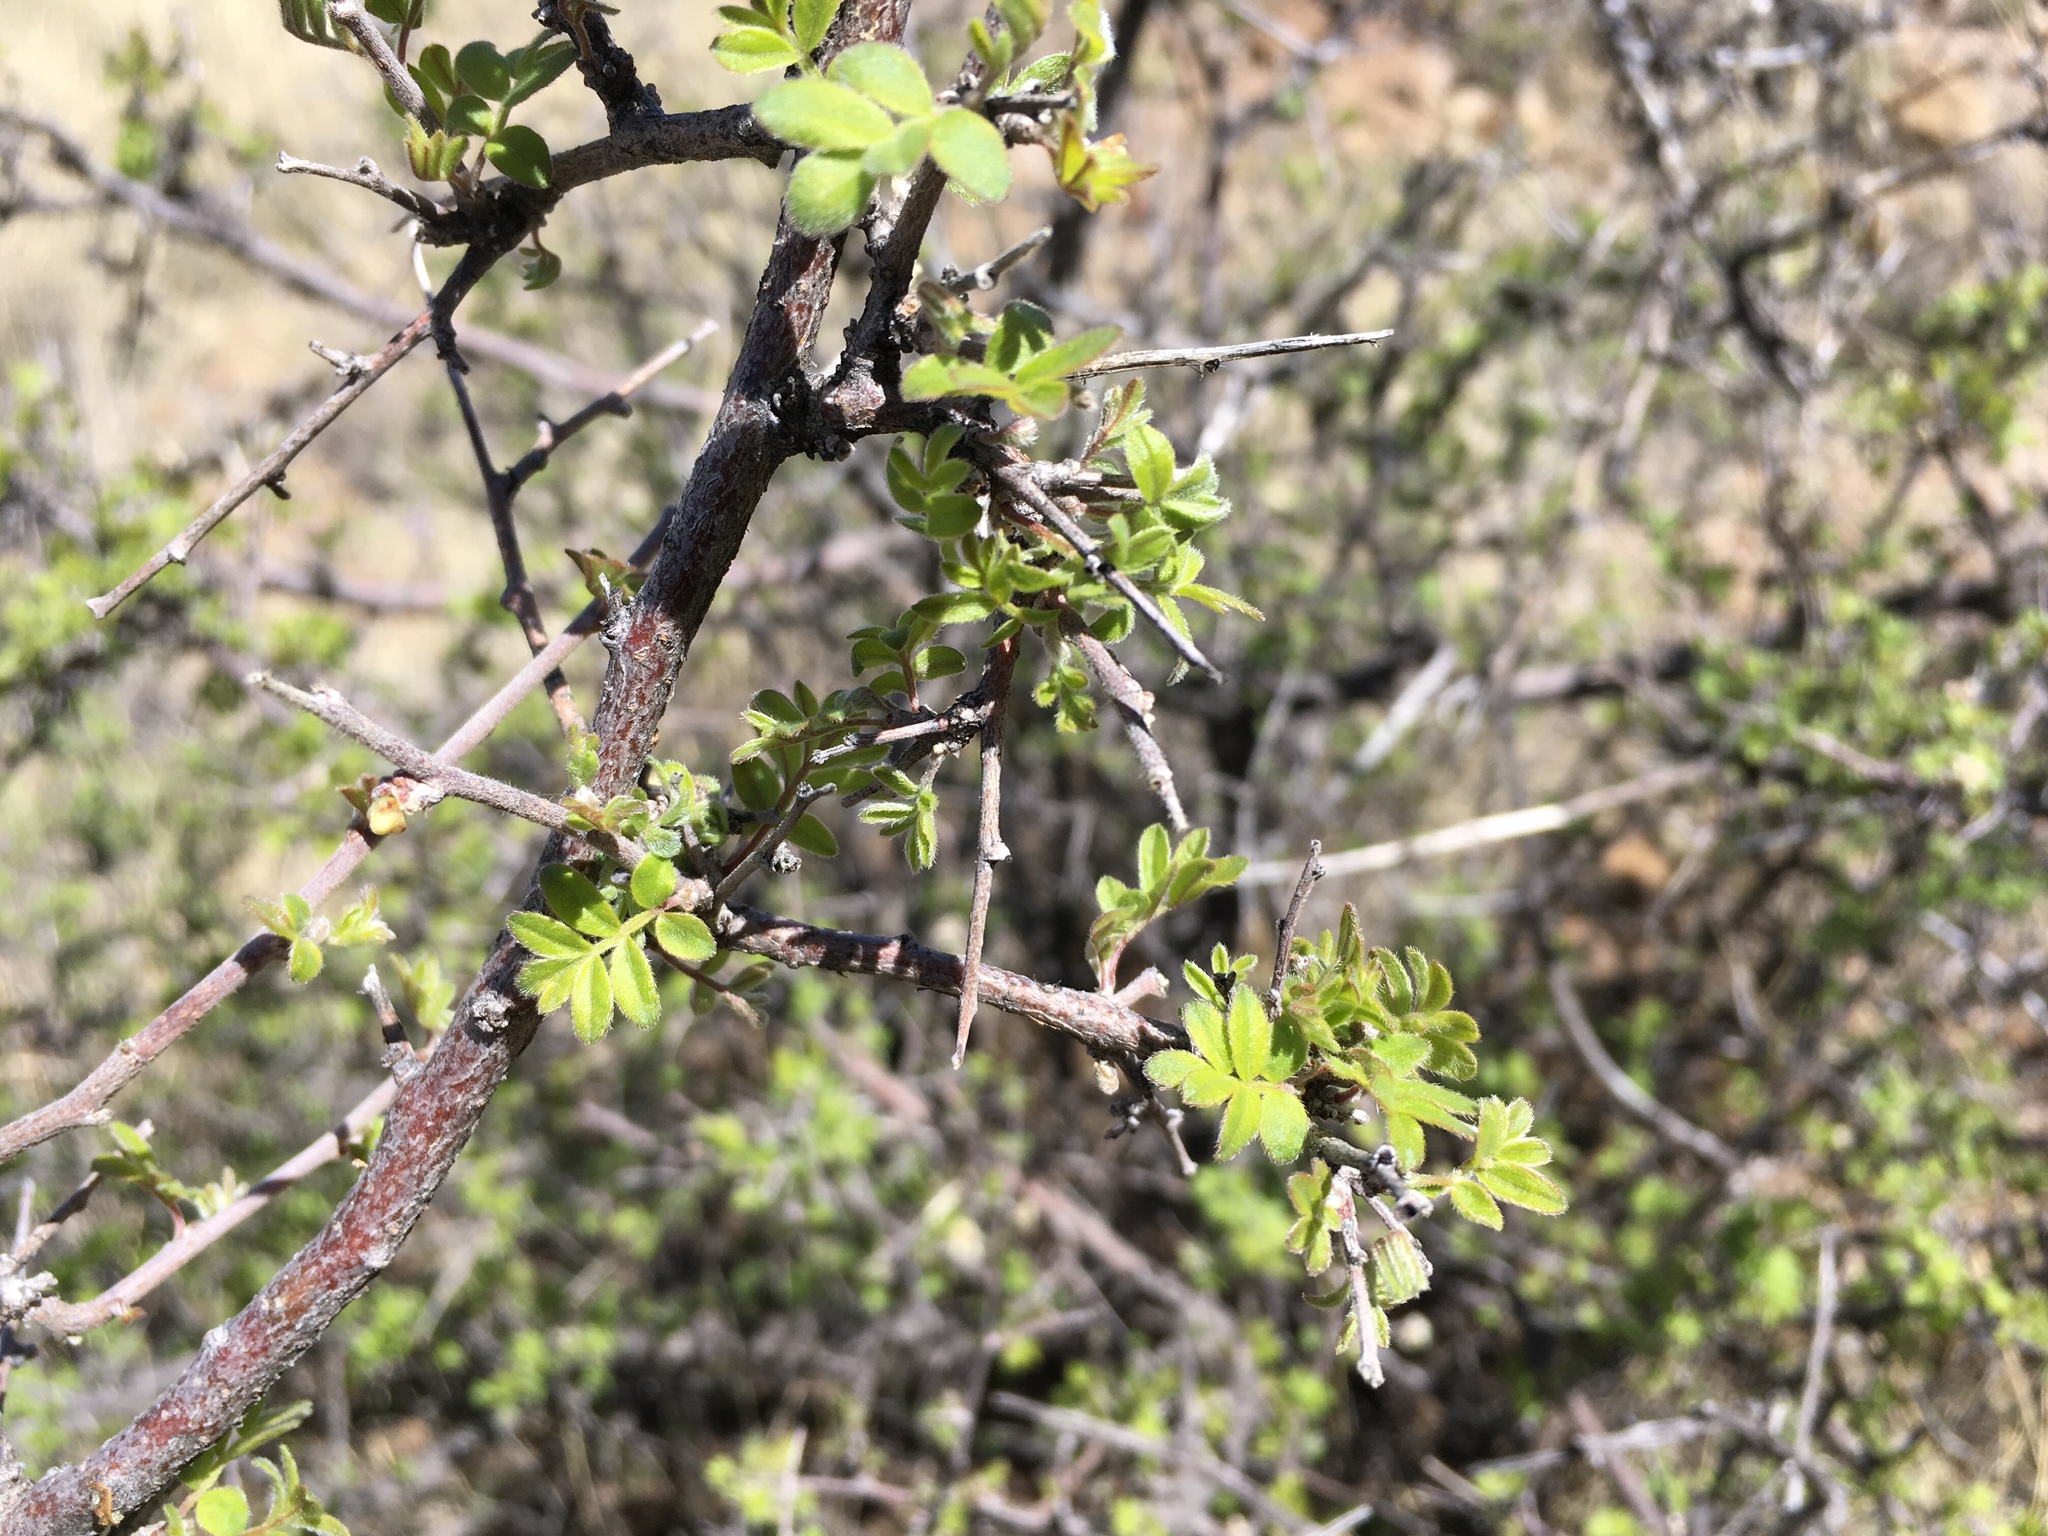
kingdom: Plantae
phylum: Tracheophyta
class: Magnoliopsida
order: Sapindales
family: Anacardiaceae
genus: Rhus
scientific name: Rhus microphylla
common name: Desert sumac
